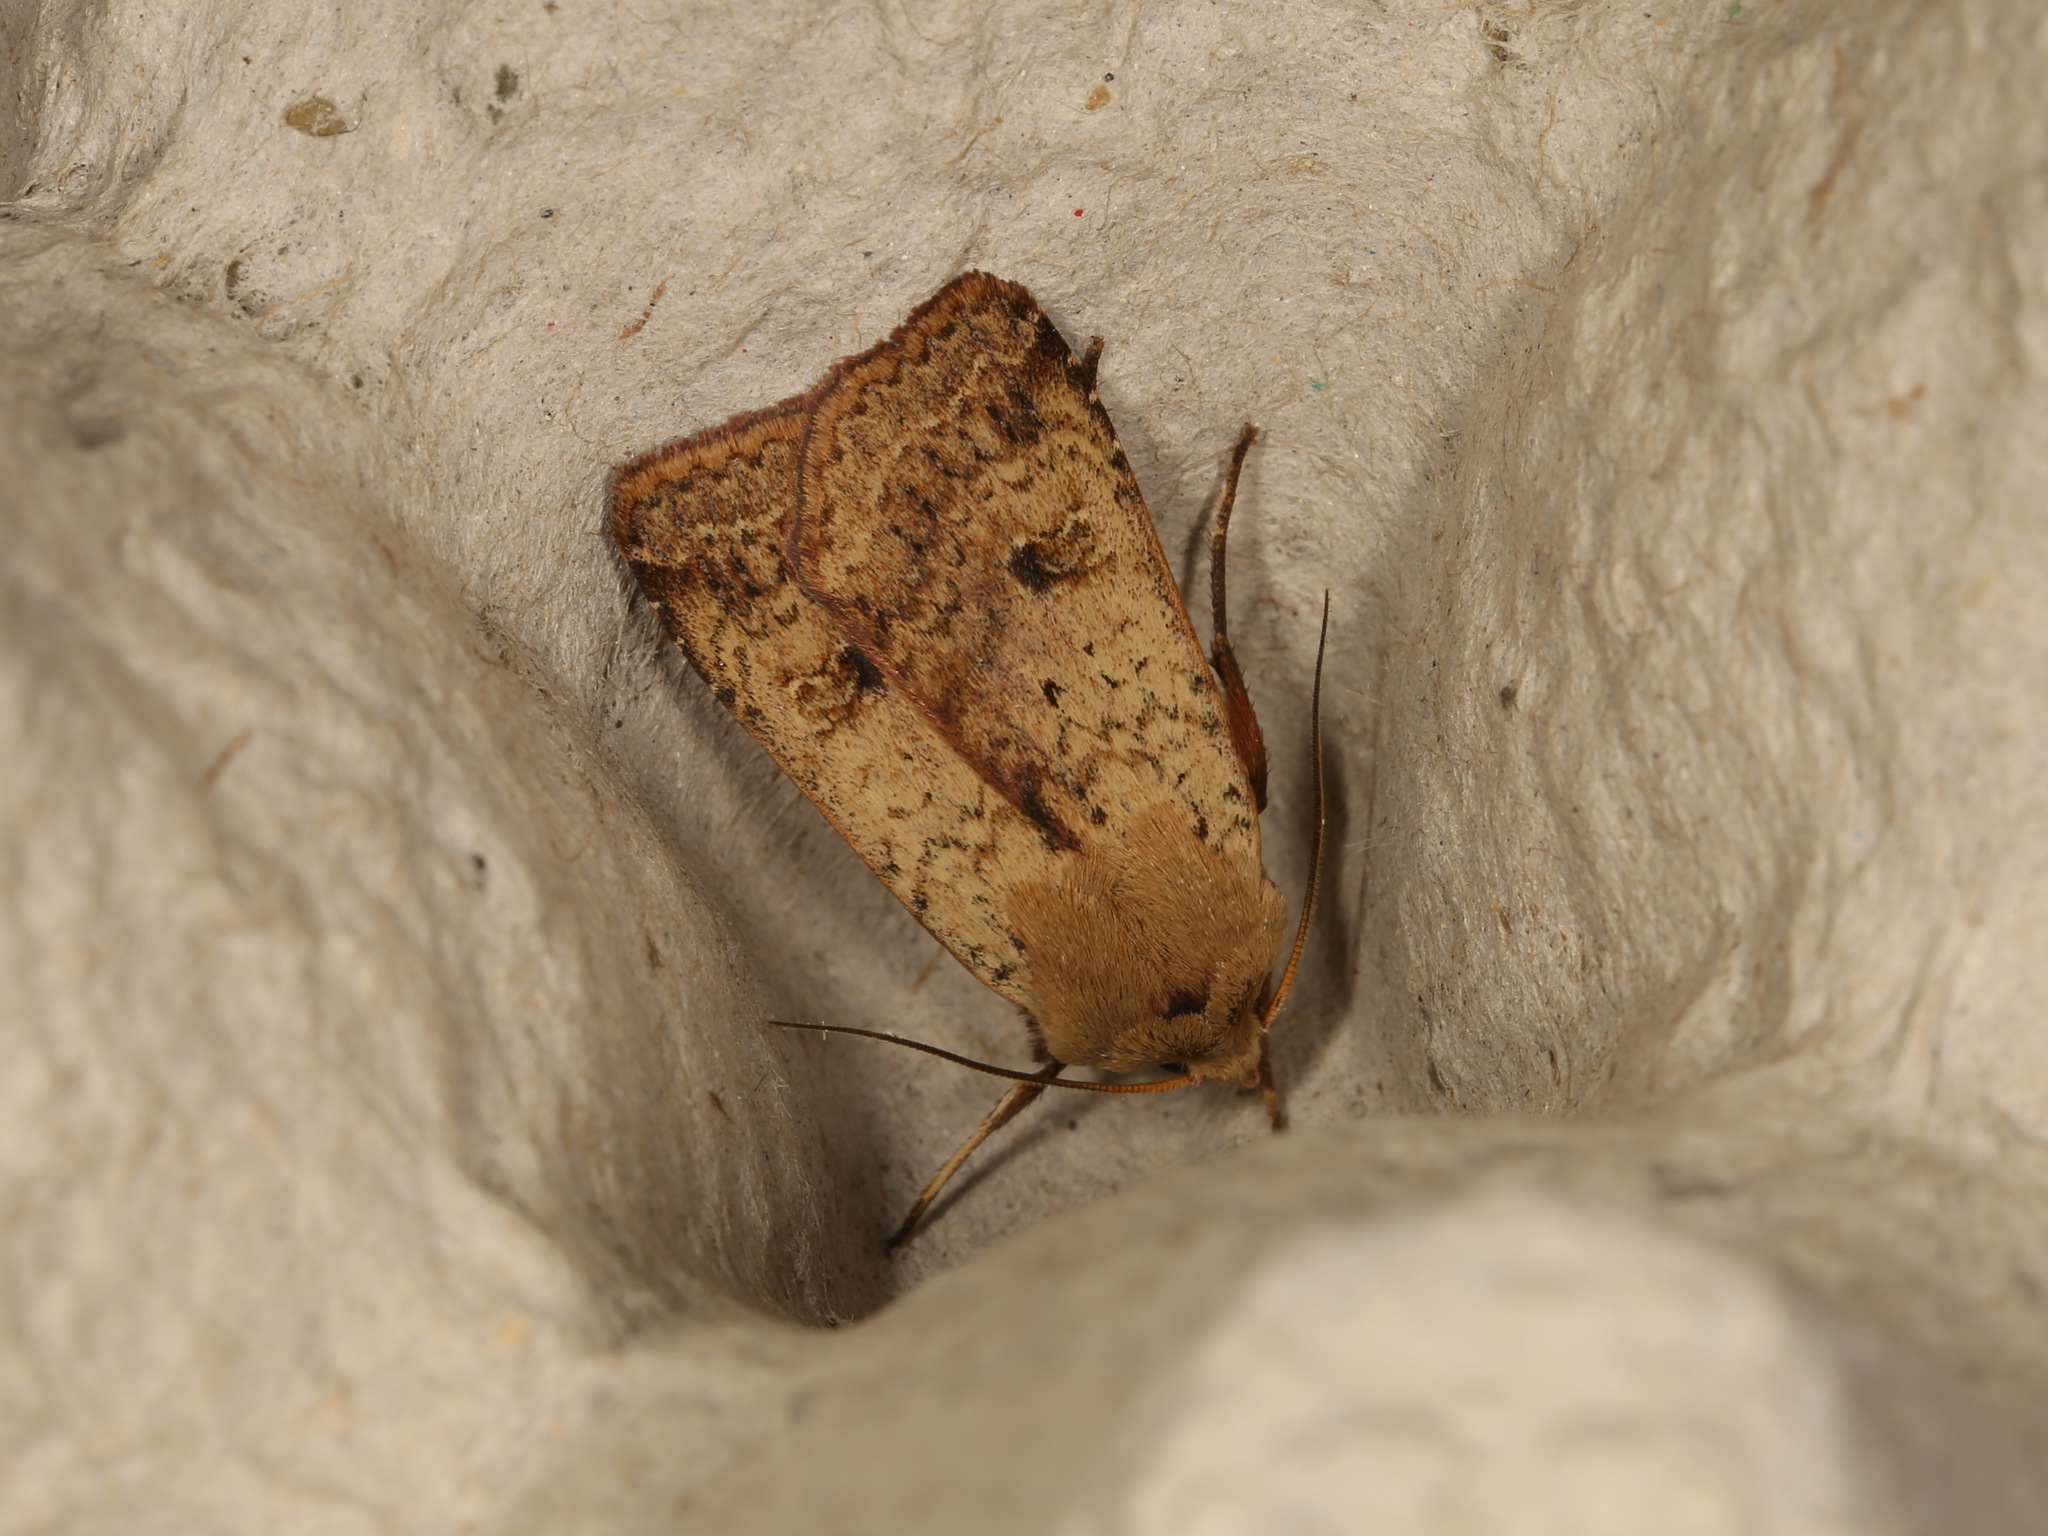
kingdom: Animalia
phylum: Arthropoda
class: Insecta
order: Lepidoptera
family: Noctuidae
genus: Diarsia
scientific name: Diarsia intermixta
